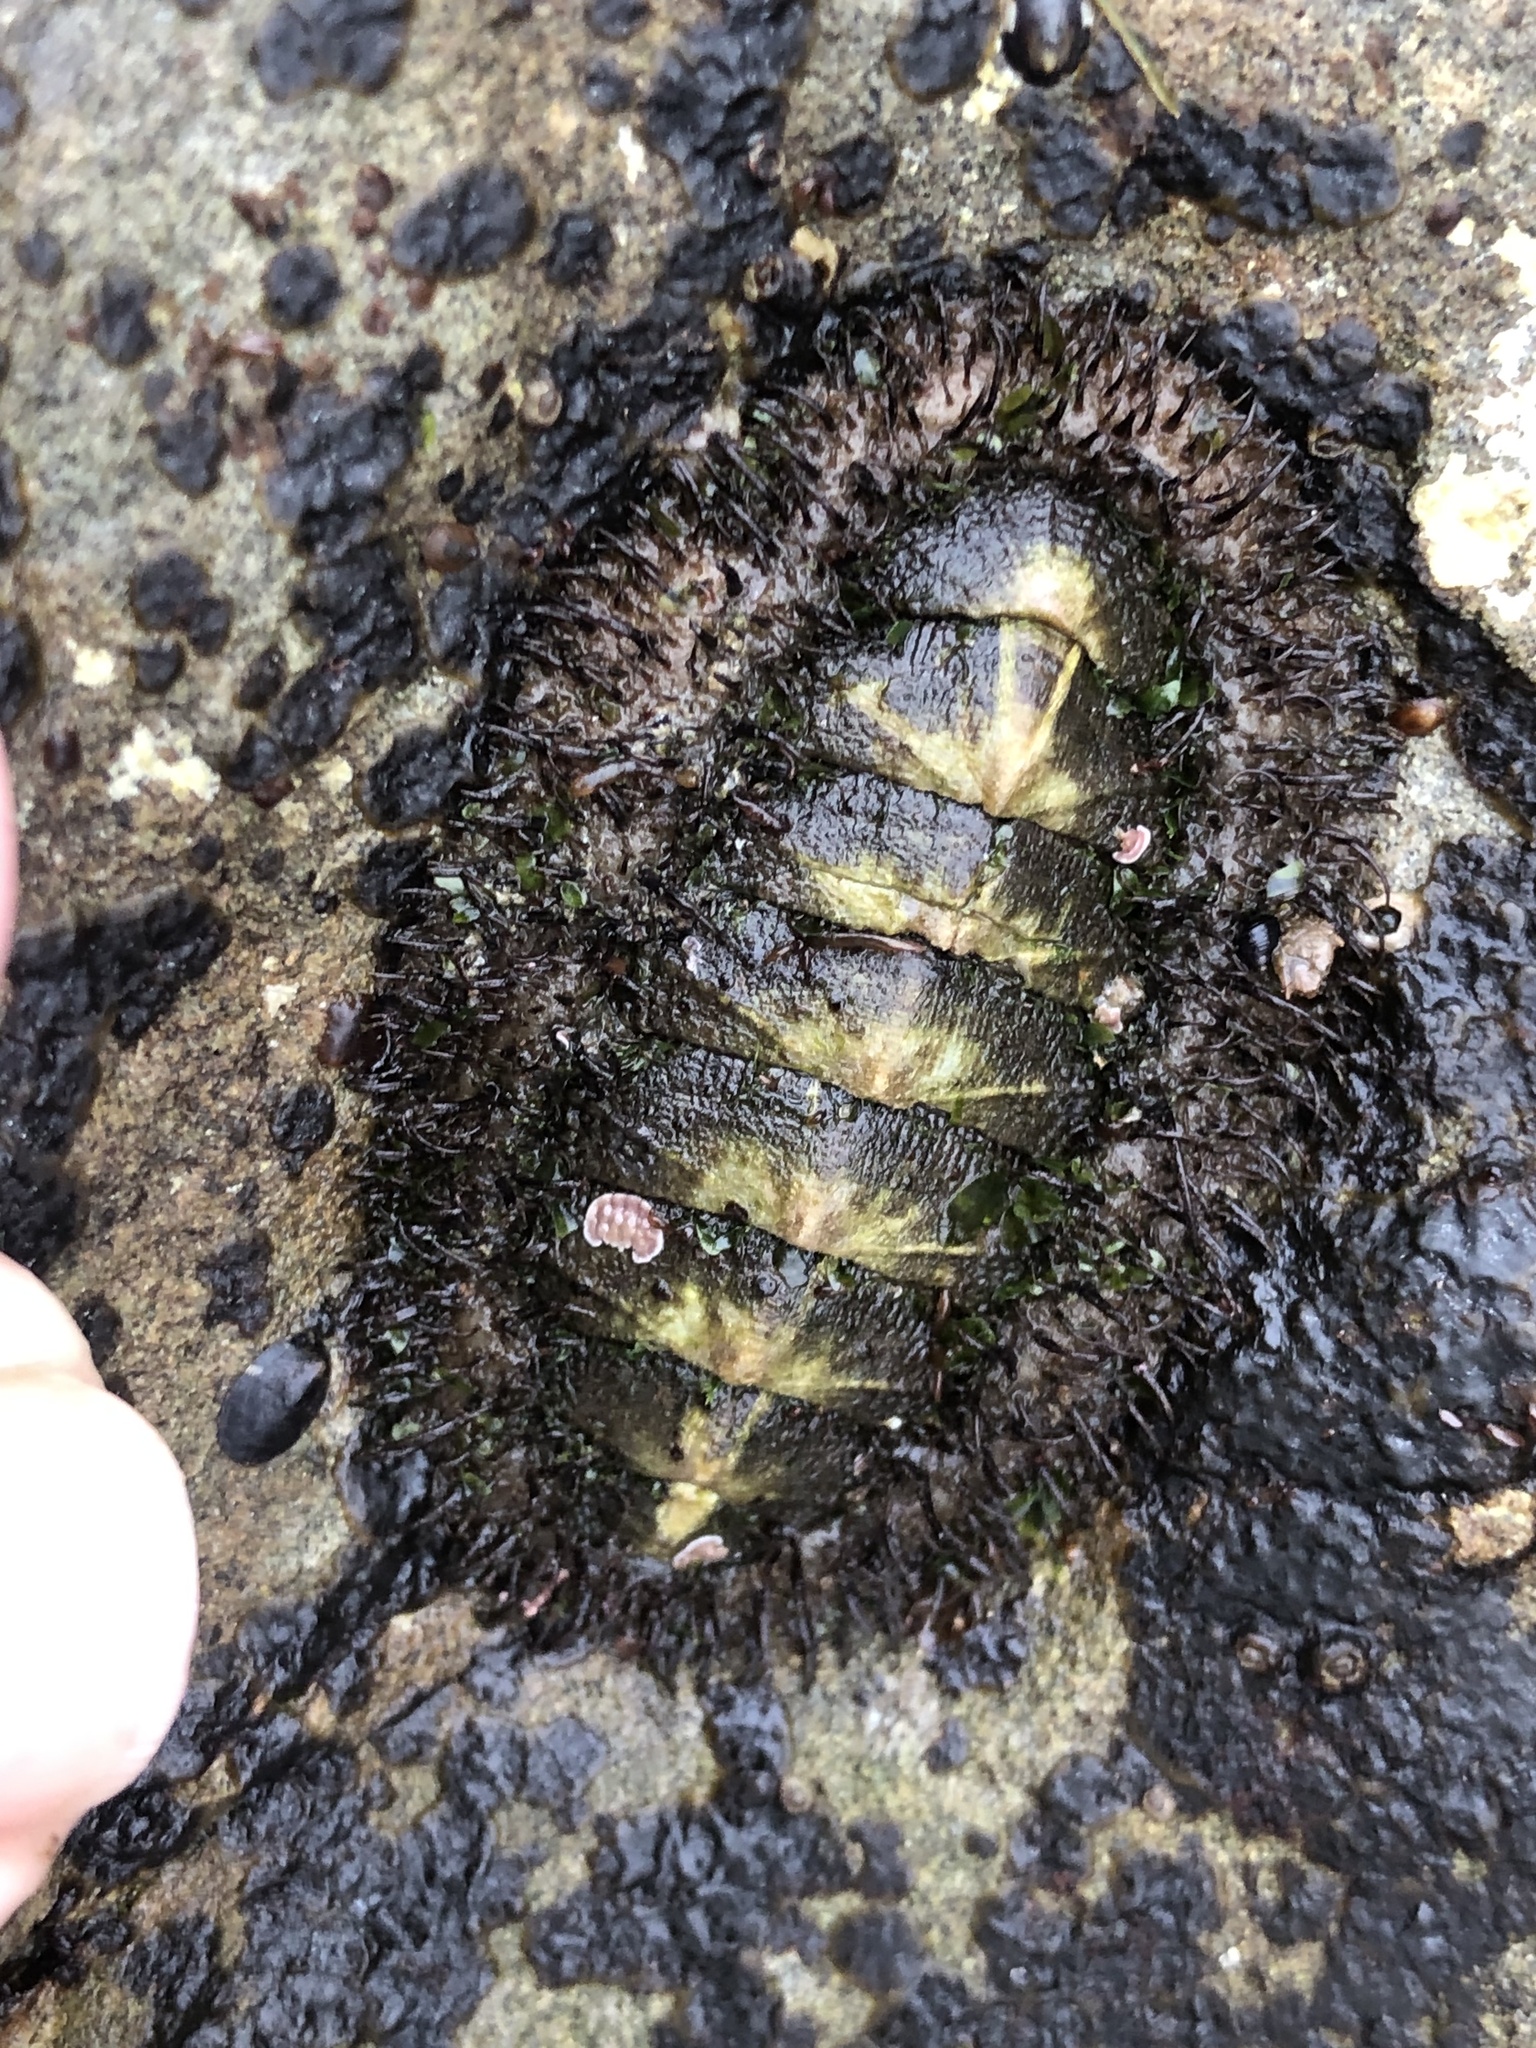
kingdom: Animalia
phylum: Mollusca
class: Polyplacophora
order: Chitonida
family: Mopaliidae
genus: Mopalia
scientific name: Mopalia muscosa
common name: Mossy chiton
